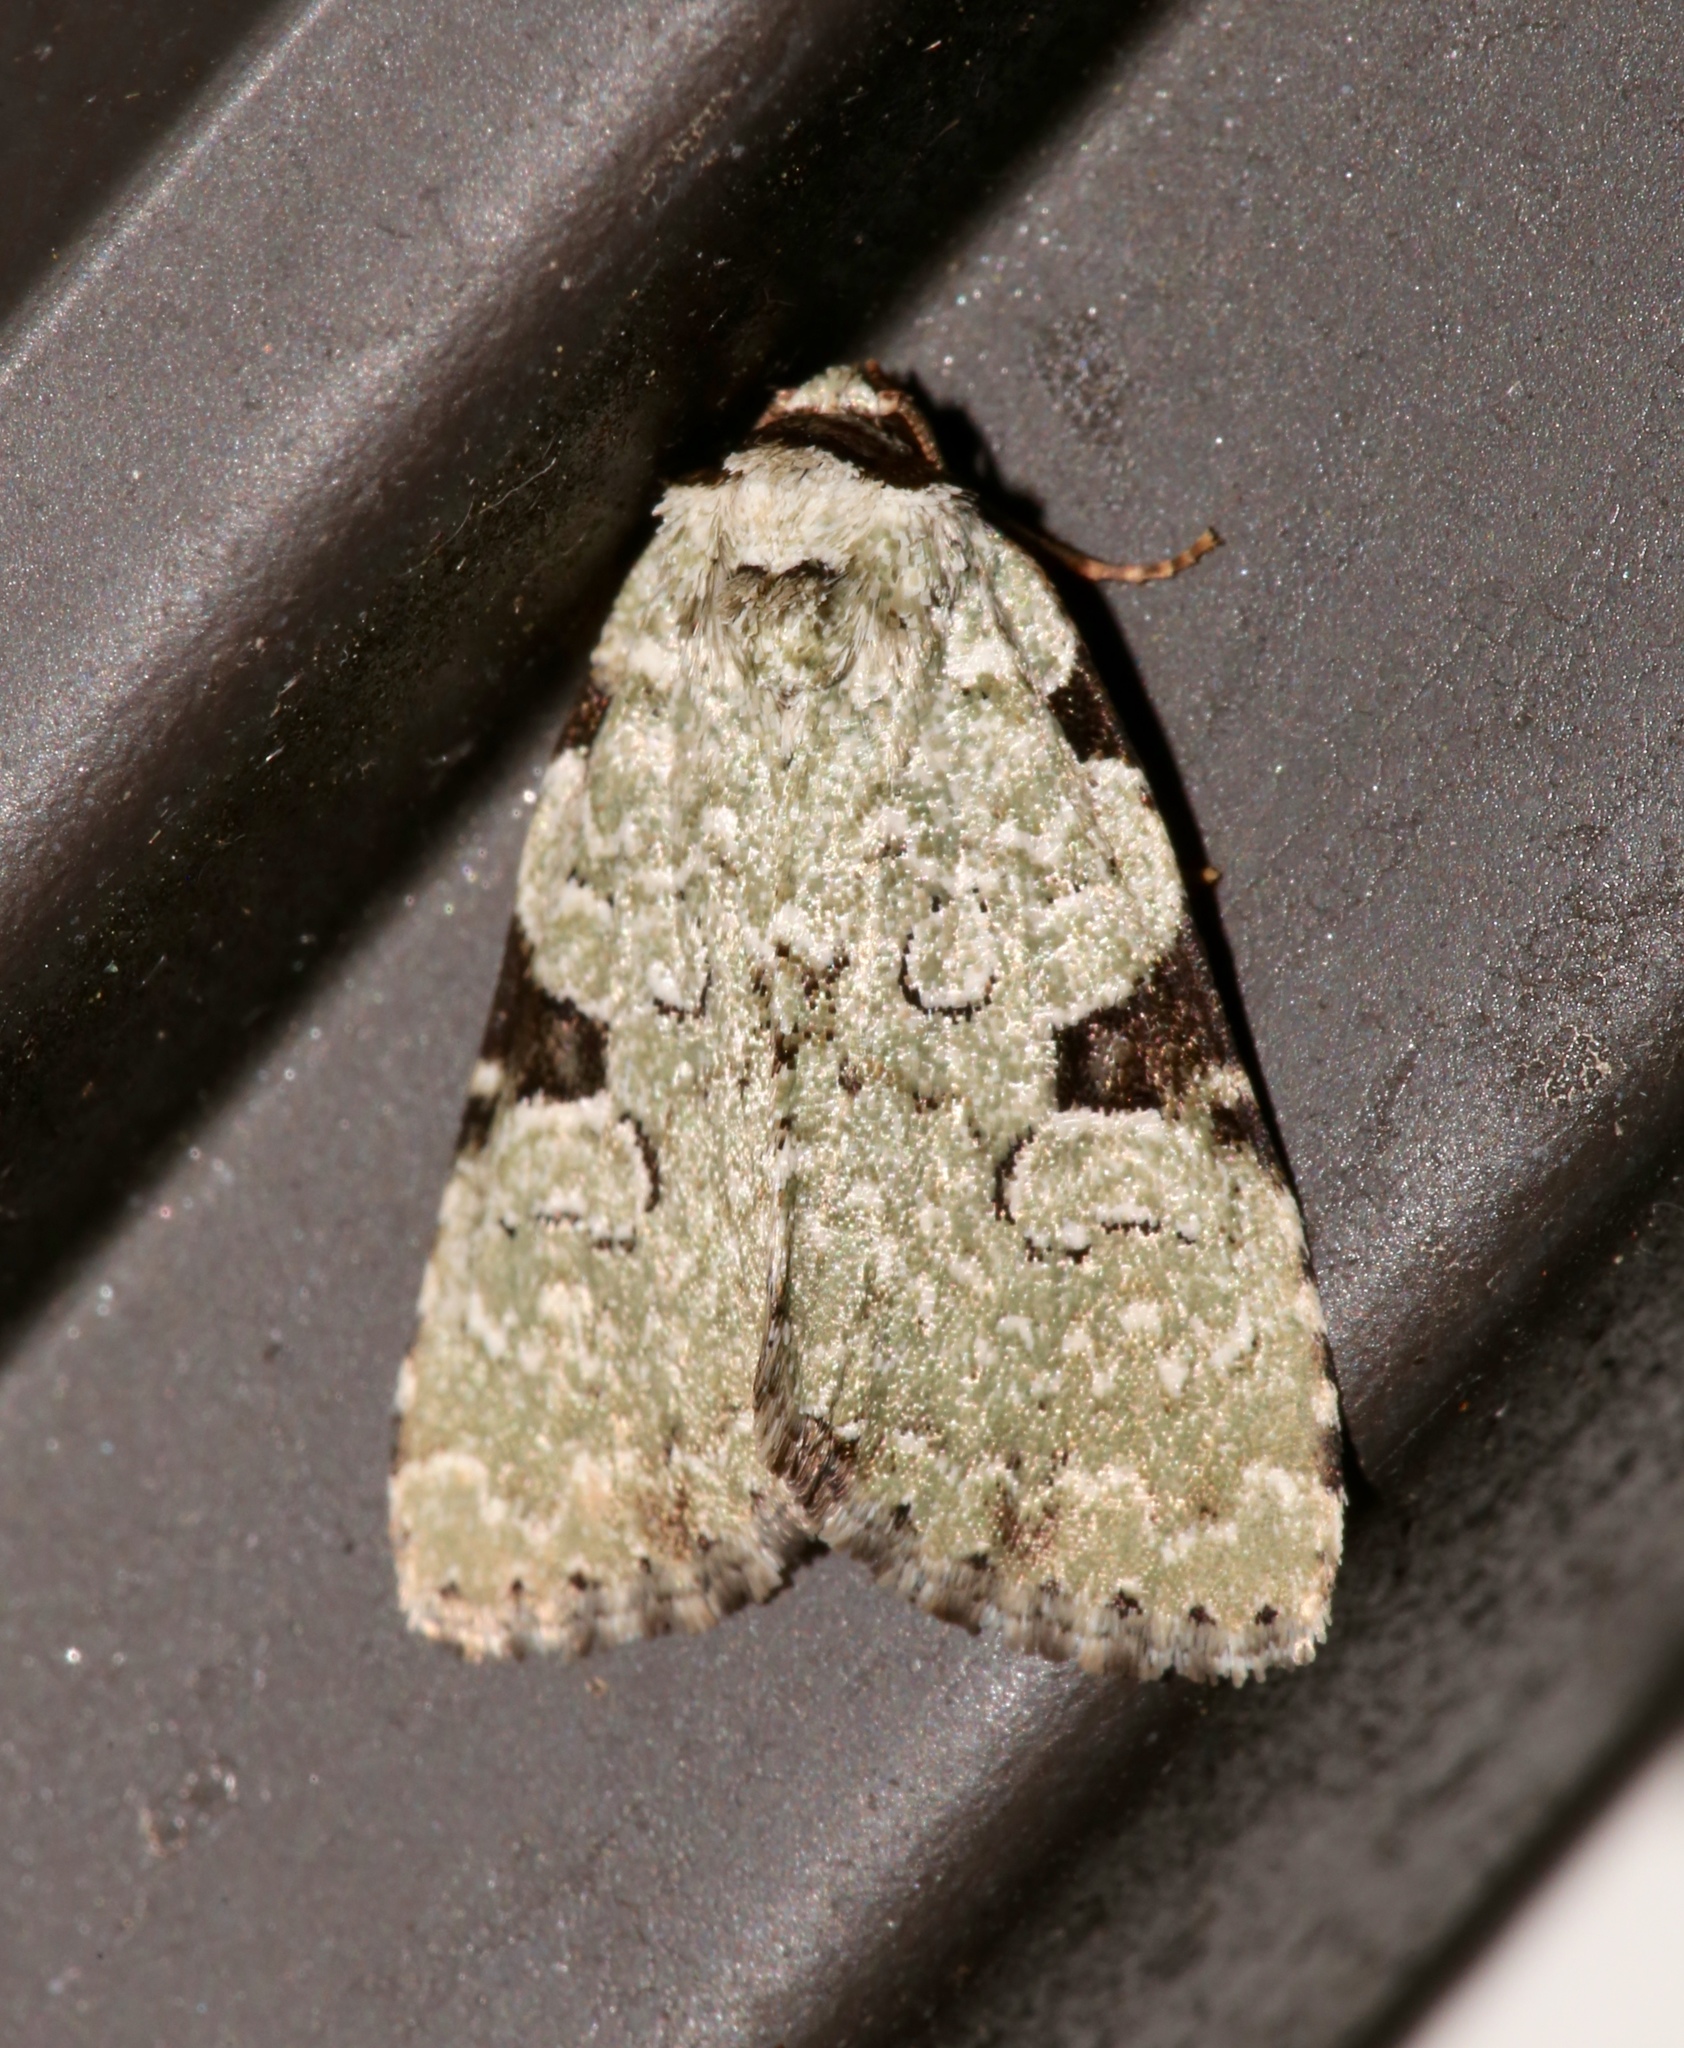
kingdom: Animalia
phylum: Arthropoda
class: Insecta
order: Lepidoptera
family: Noctuidae
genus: Leuconycta
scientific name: Leuconycta diphteroides
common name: Green leuconycta moth
